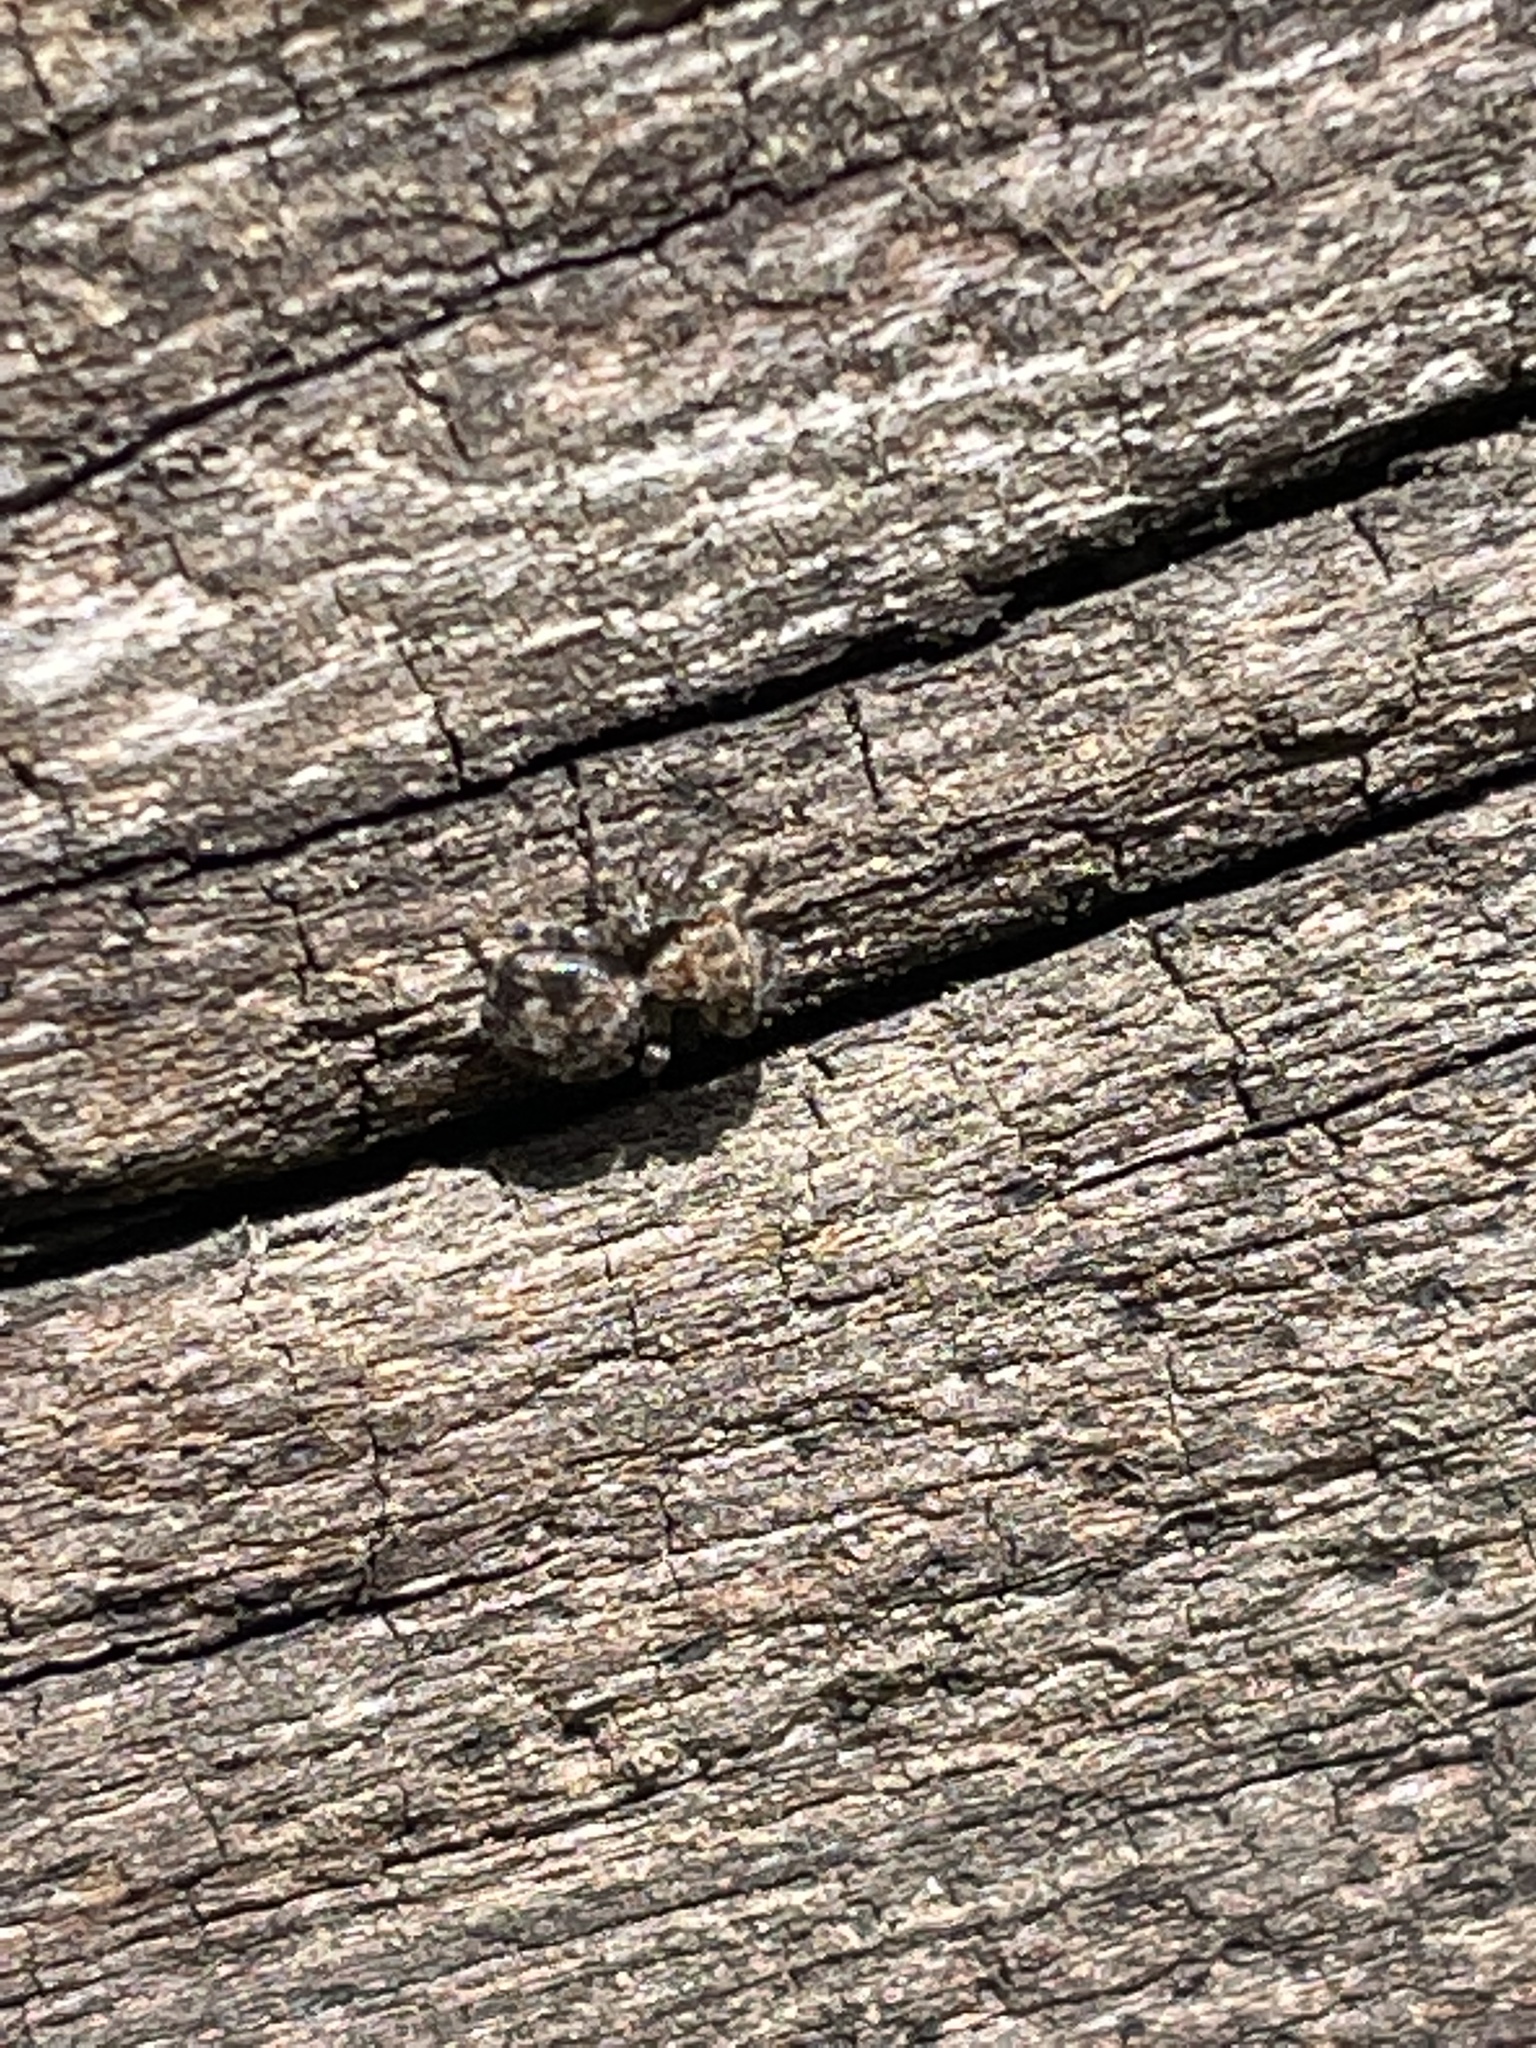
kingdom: Animalia
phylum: Arthropoda
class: Arachnida
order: Araneae
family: Salticidae
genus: Naphrys
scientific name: Naphrys pulex
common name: Flea jumping spider
